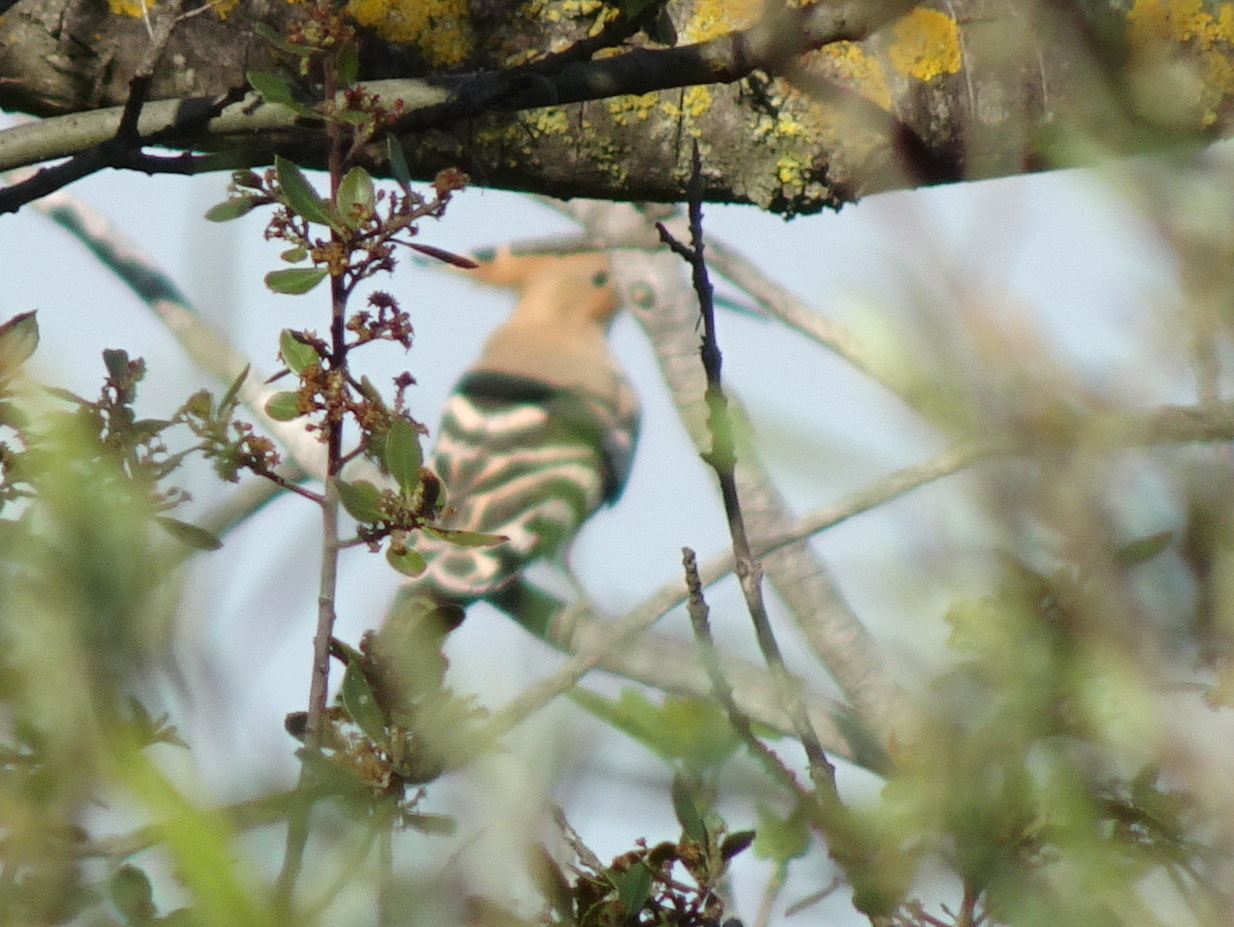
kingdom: Animalia
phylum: Chordata
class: Aves
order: Bucerotiformes
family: Upupidae
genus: Upupa
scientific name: Upupa epops
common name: Eurasian hoopoe
